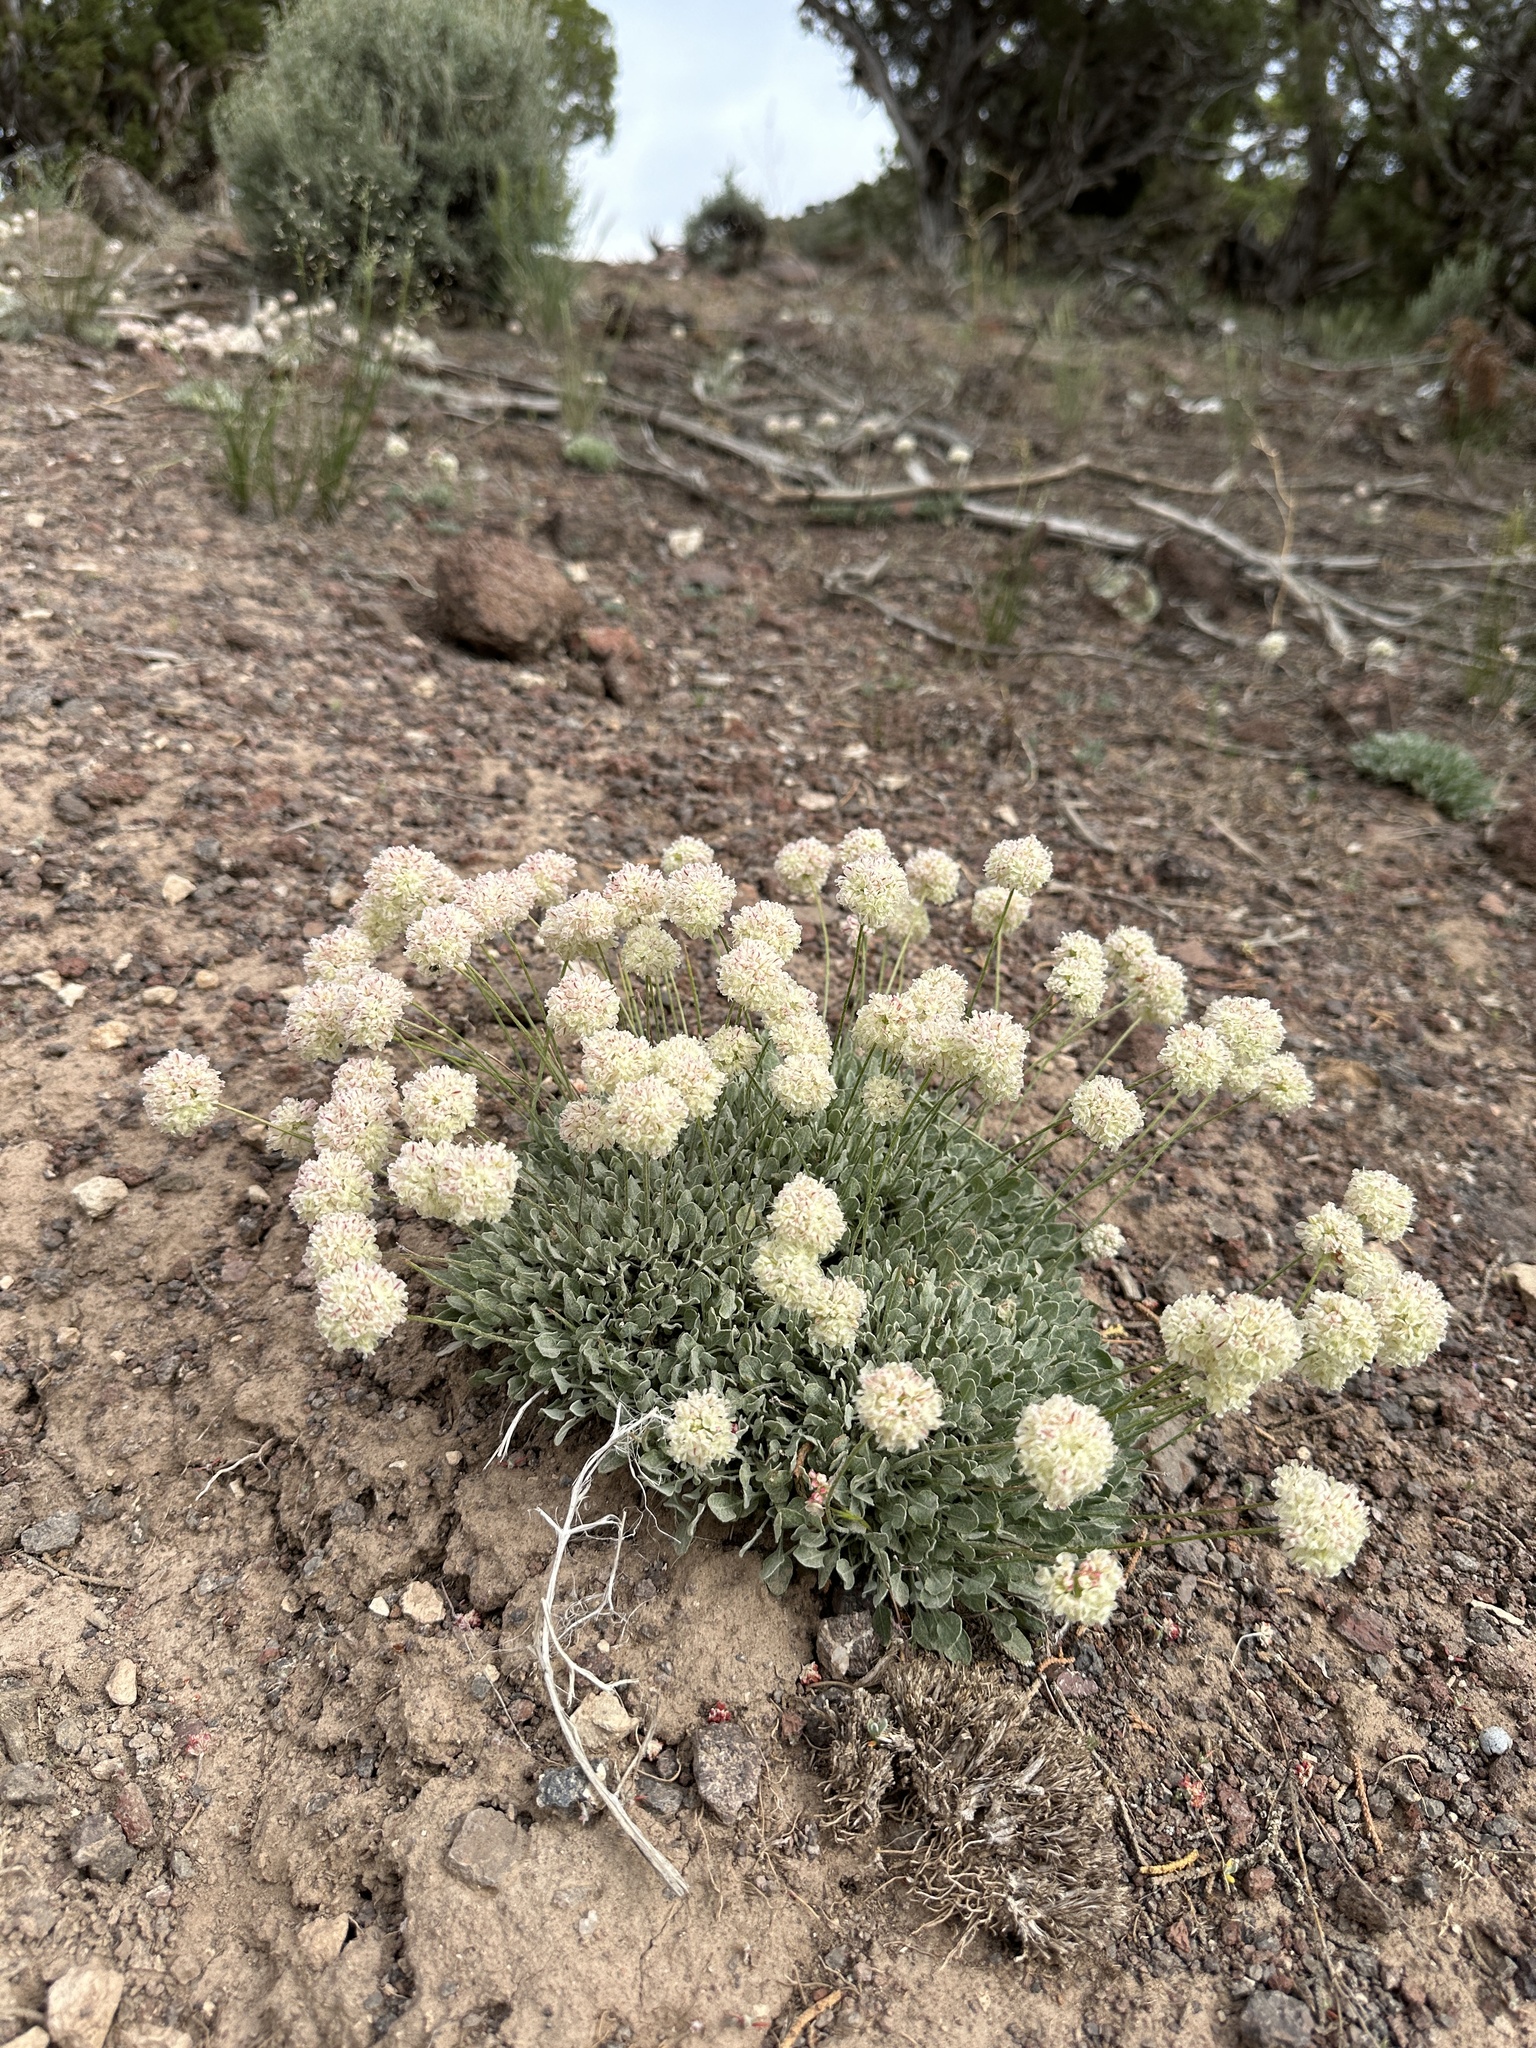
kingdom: Plantae
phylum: Tracheophyta
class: Magnoliopsida
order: Caryophyllales
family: Polygonaceae
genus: Eriogonum
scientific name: Eriogonum ovalifolium
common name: Cushion buckwheat
